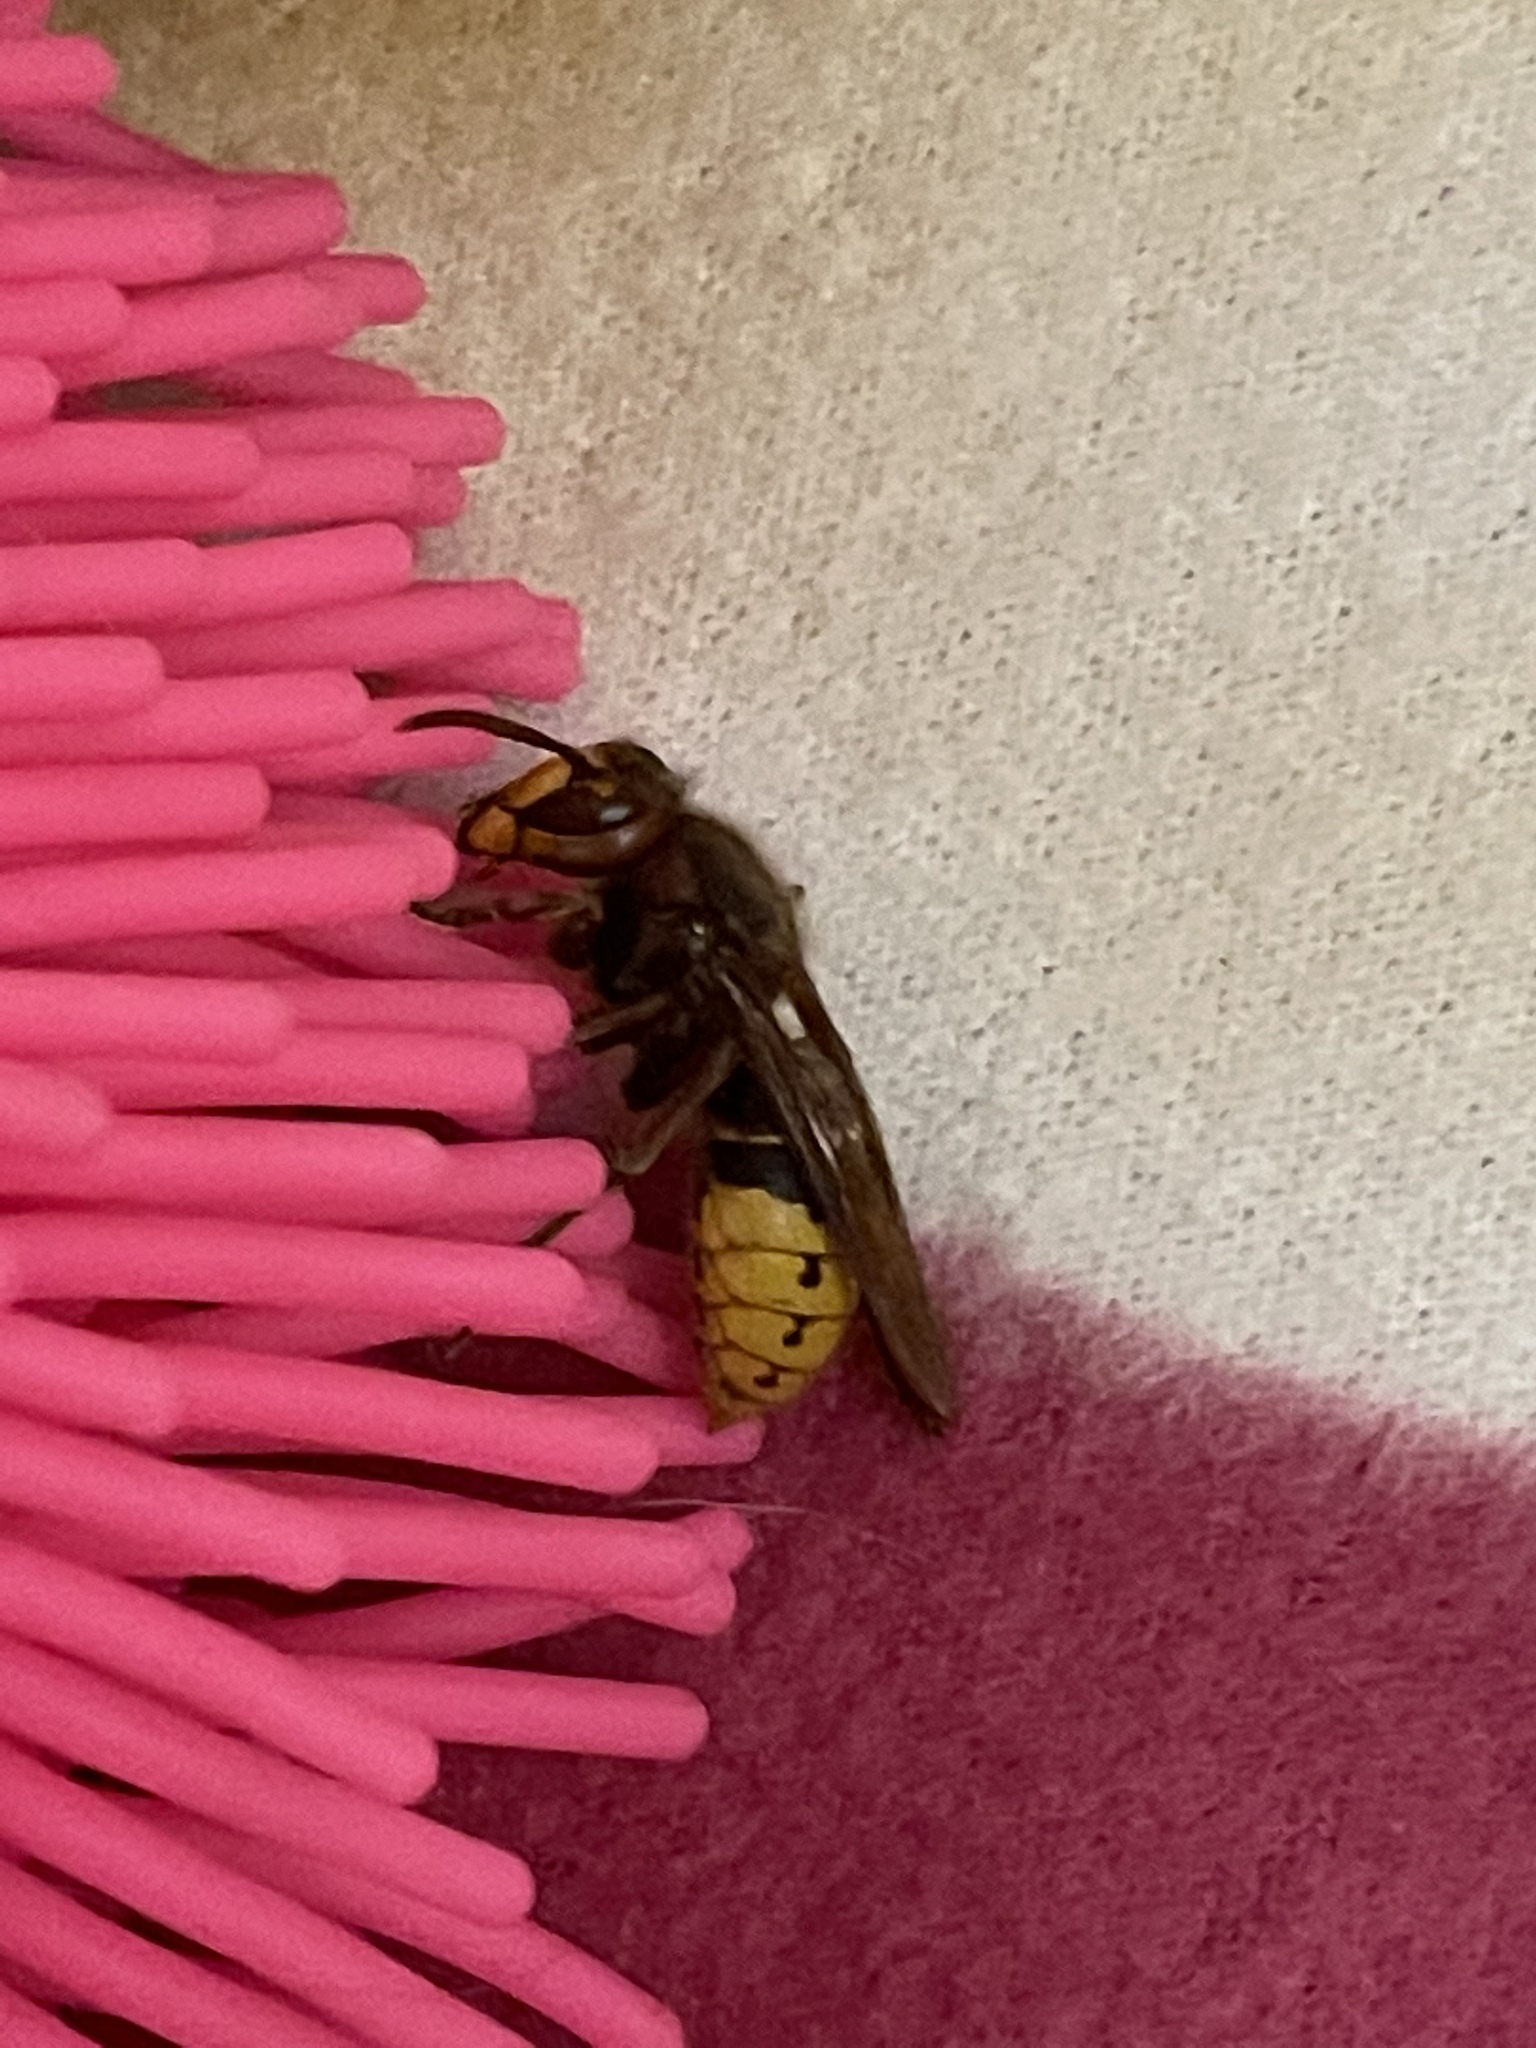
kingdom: Animalia
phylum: Arthropoda
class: Insecta
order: Hymenoptera
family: Vespidae
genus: Vespa
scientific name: Vespa crabro
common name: Hornet
